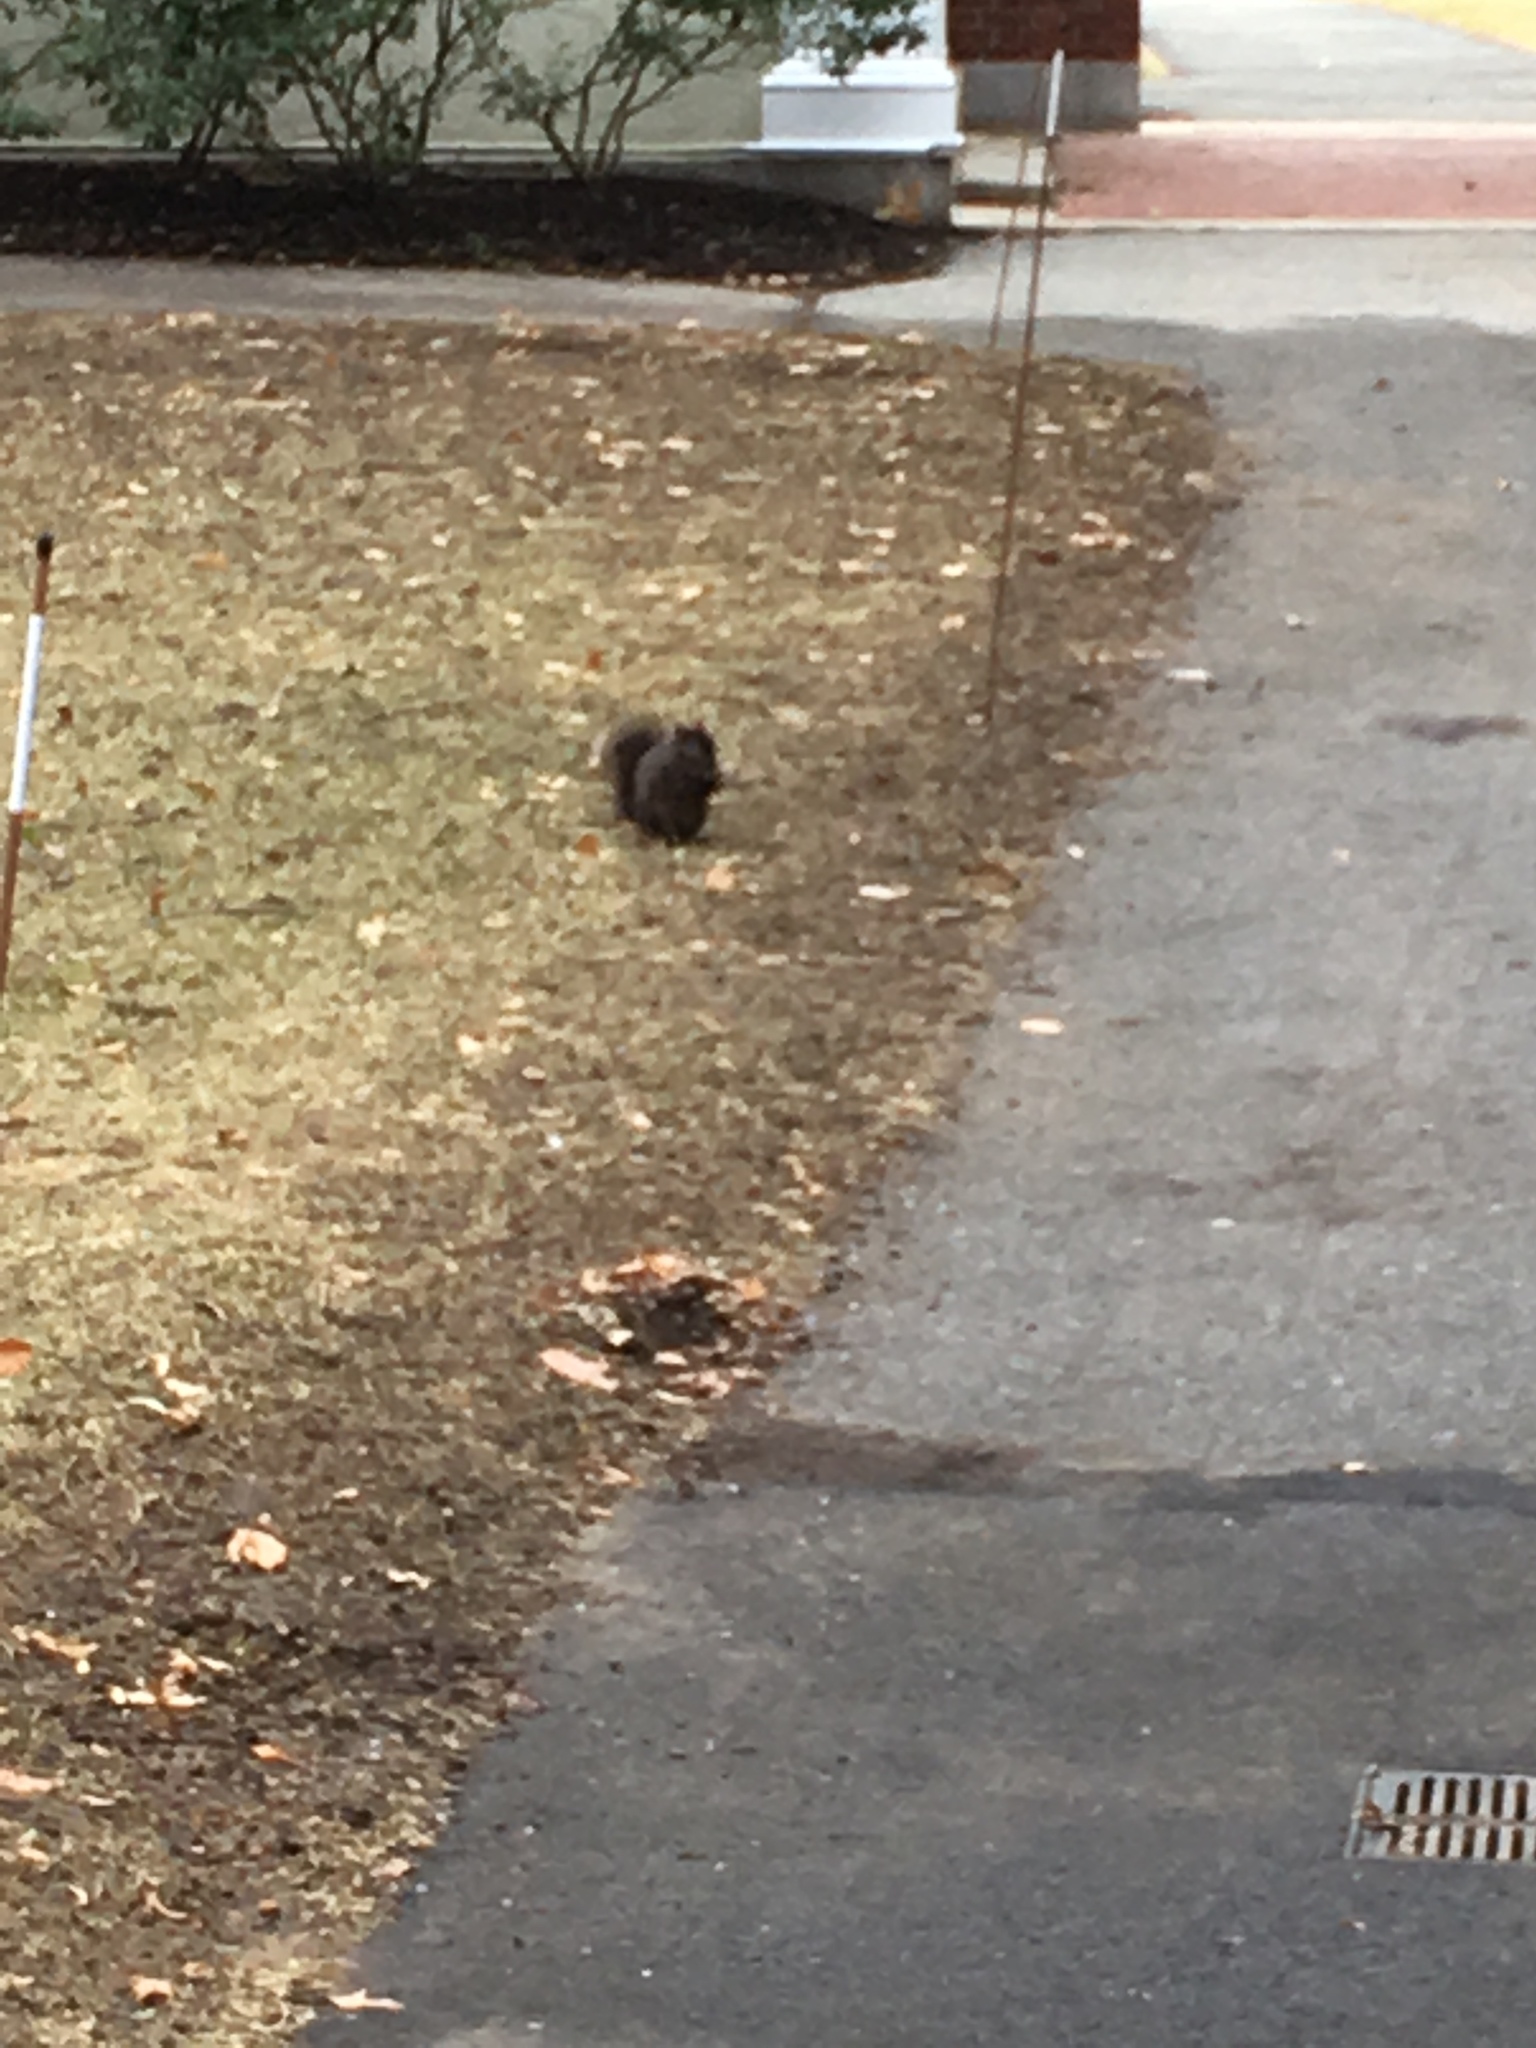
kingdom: Animalia
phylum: Chordata
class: Mammalia
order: Rodentia
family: Sciuridae
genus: Sciurus
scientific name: Sciurus carolinensis
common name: Eastern gray squirrel
